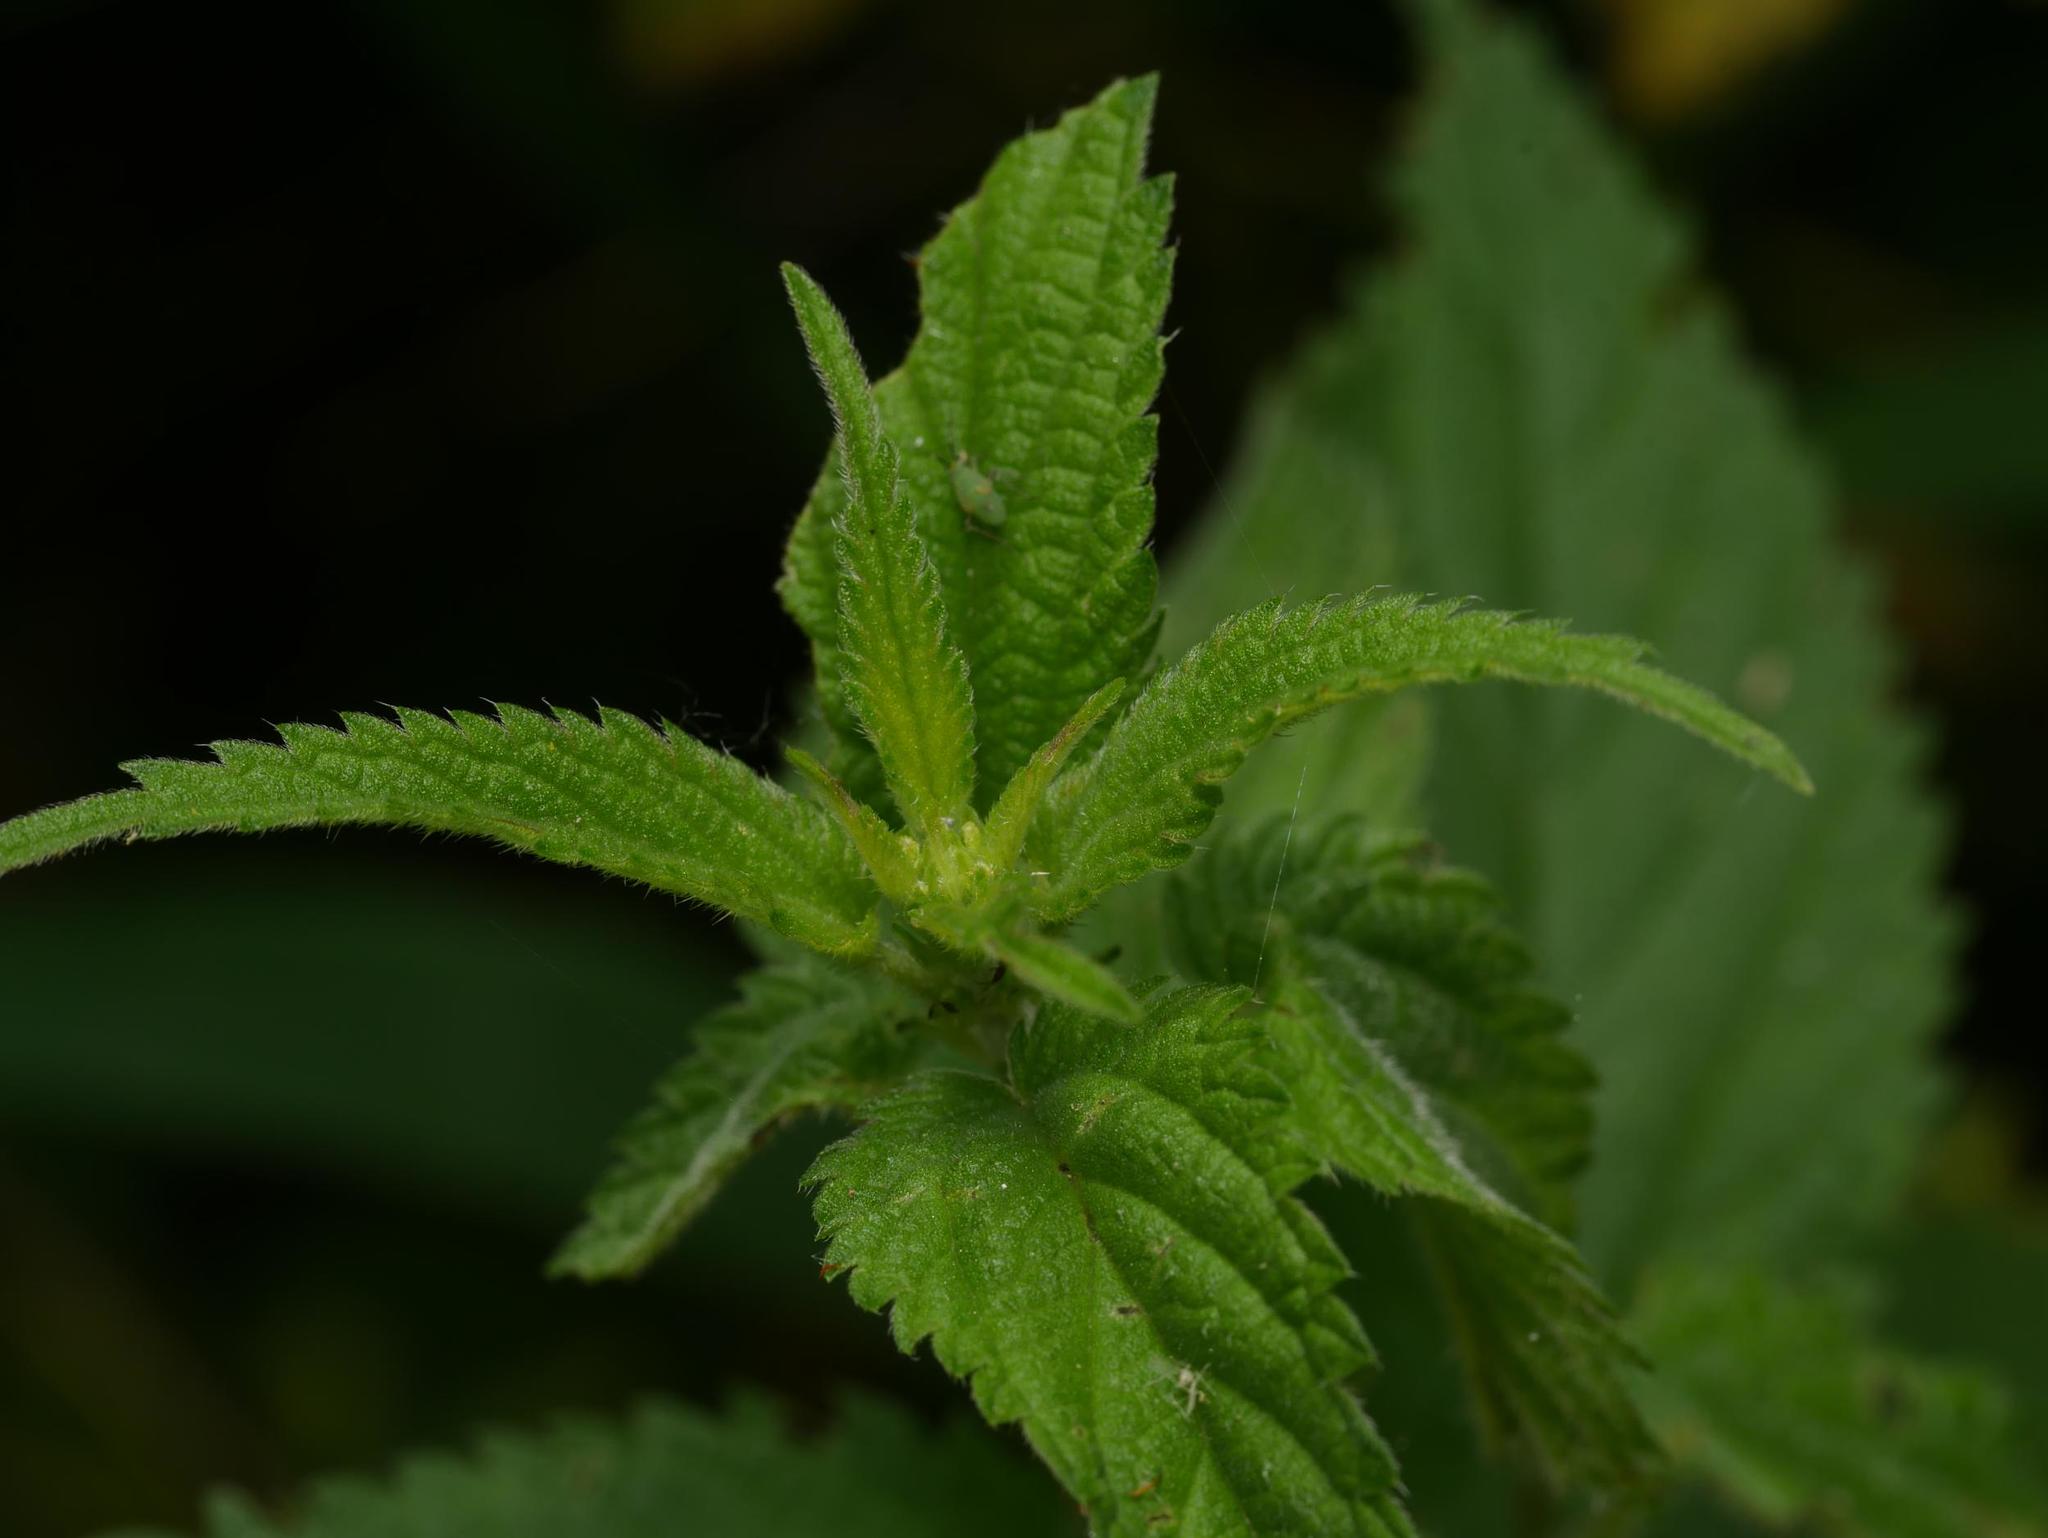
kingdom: Plantae
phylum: Tracheophyta
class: Magnoliopsida
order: Rosales
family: Urticaceae
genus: Urtica
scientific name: Urtica dioica
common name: Common nettle
